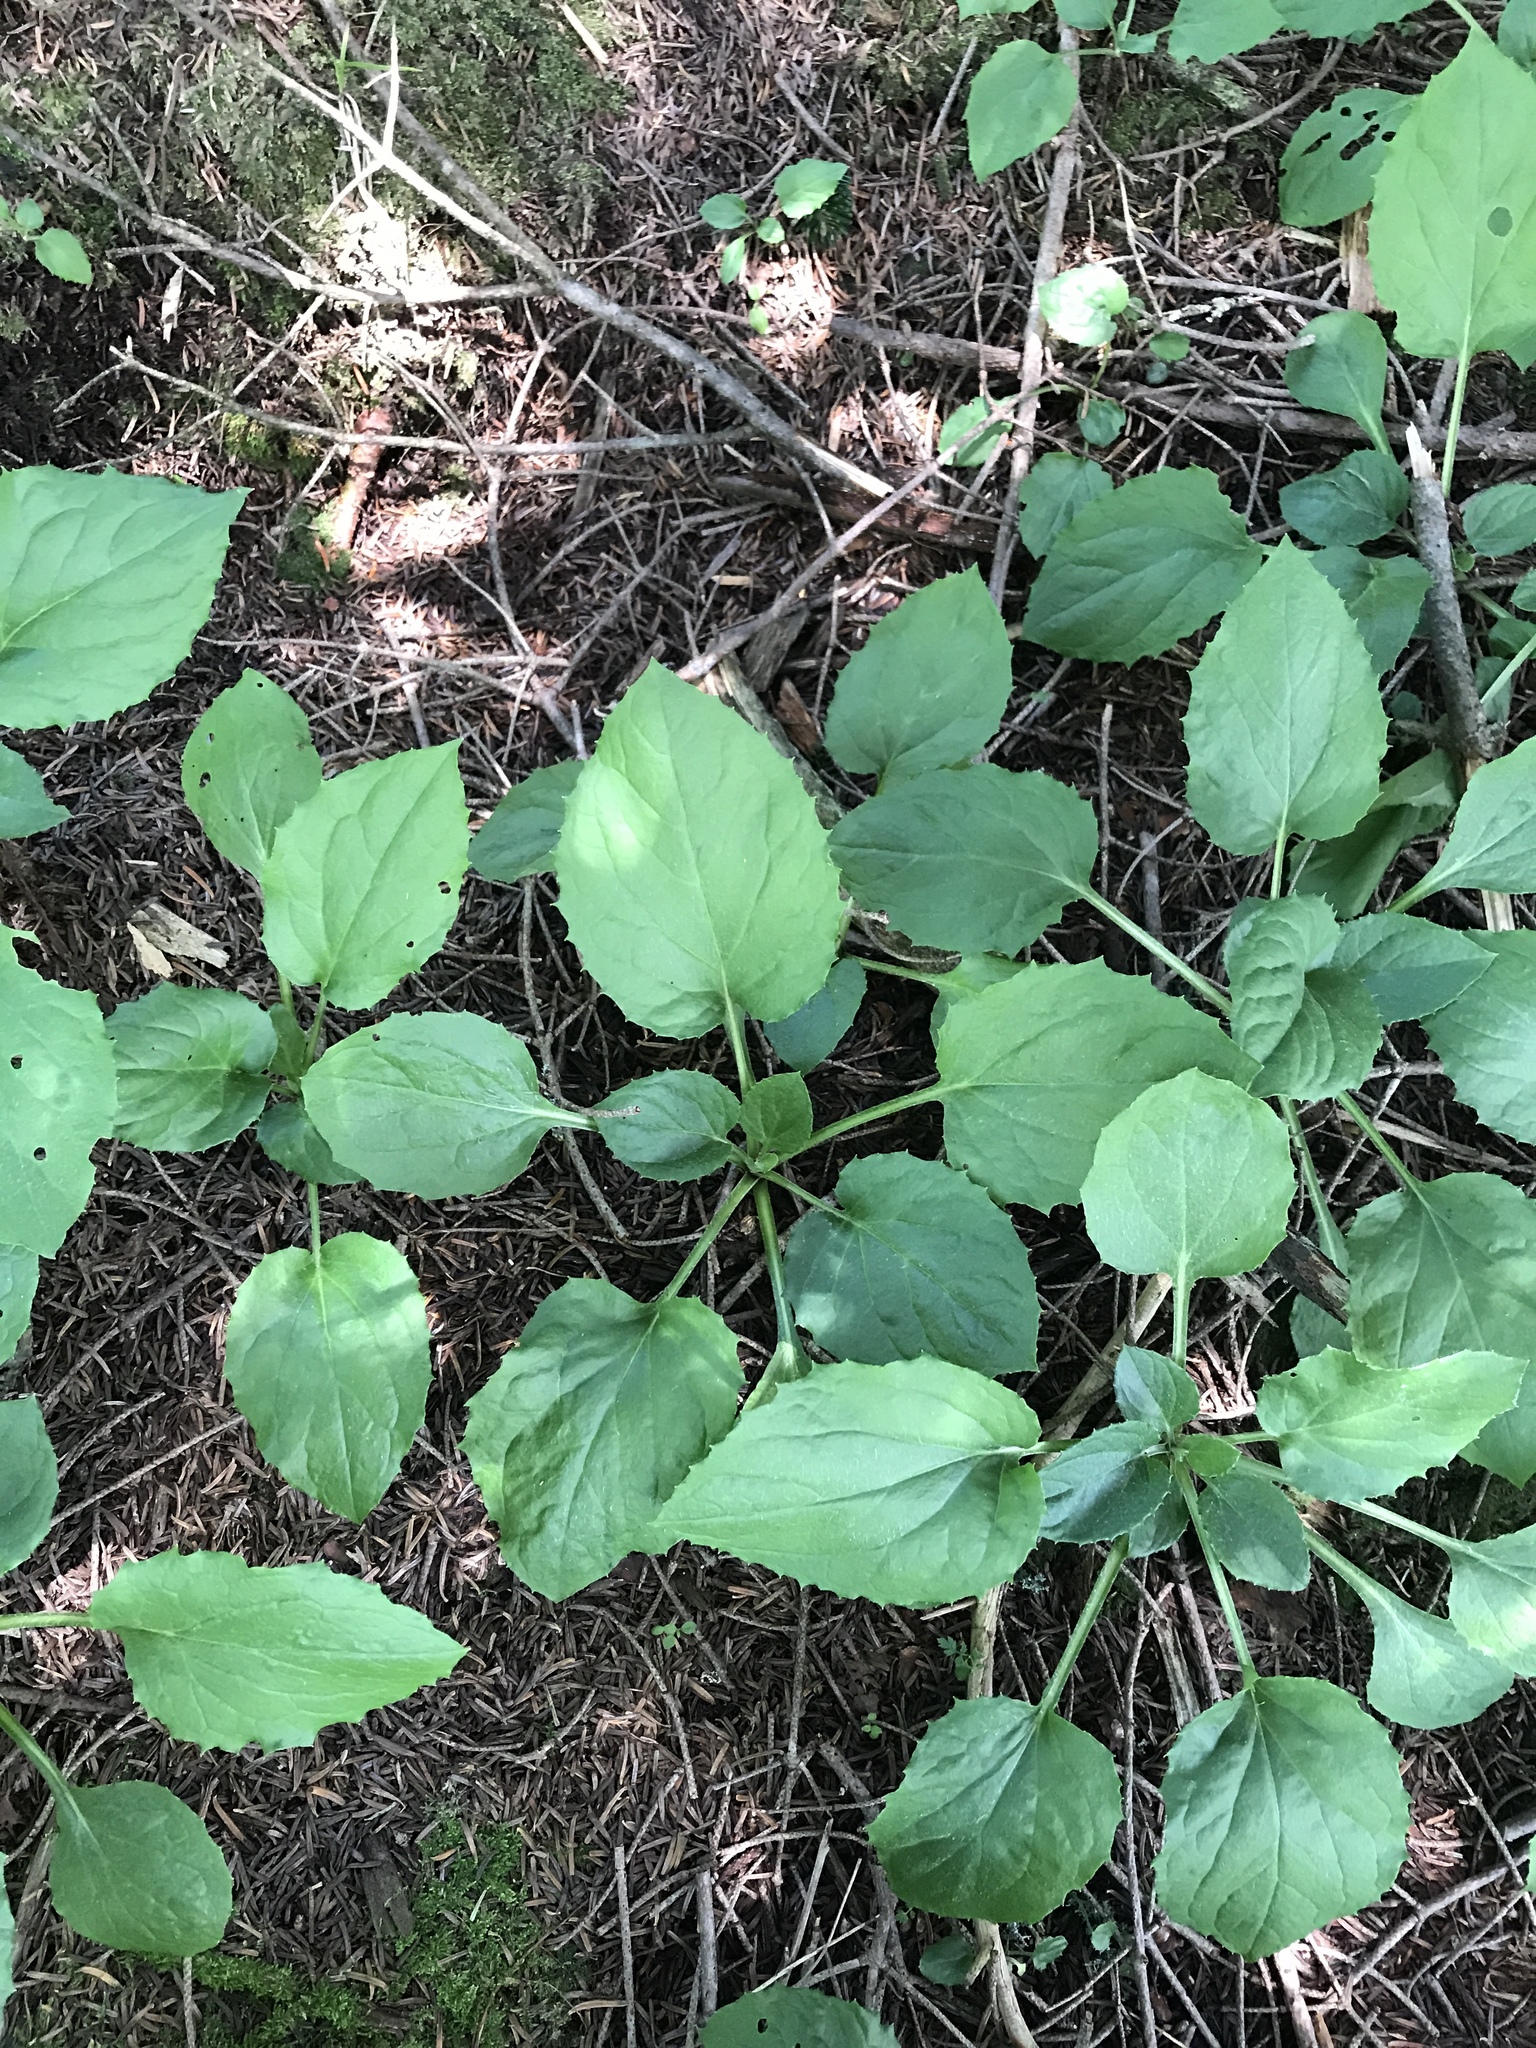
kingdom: Plantae
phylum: Tracheophyta
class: Magnoliopsida
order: Asterales
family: Asteraceae
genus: Rugelia
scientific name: Rugelia nudicaulis
